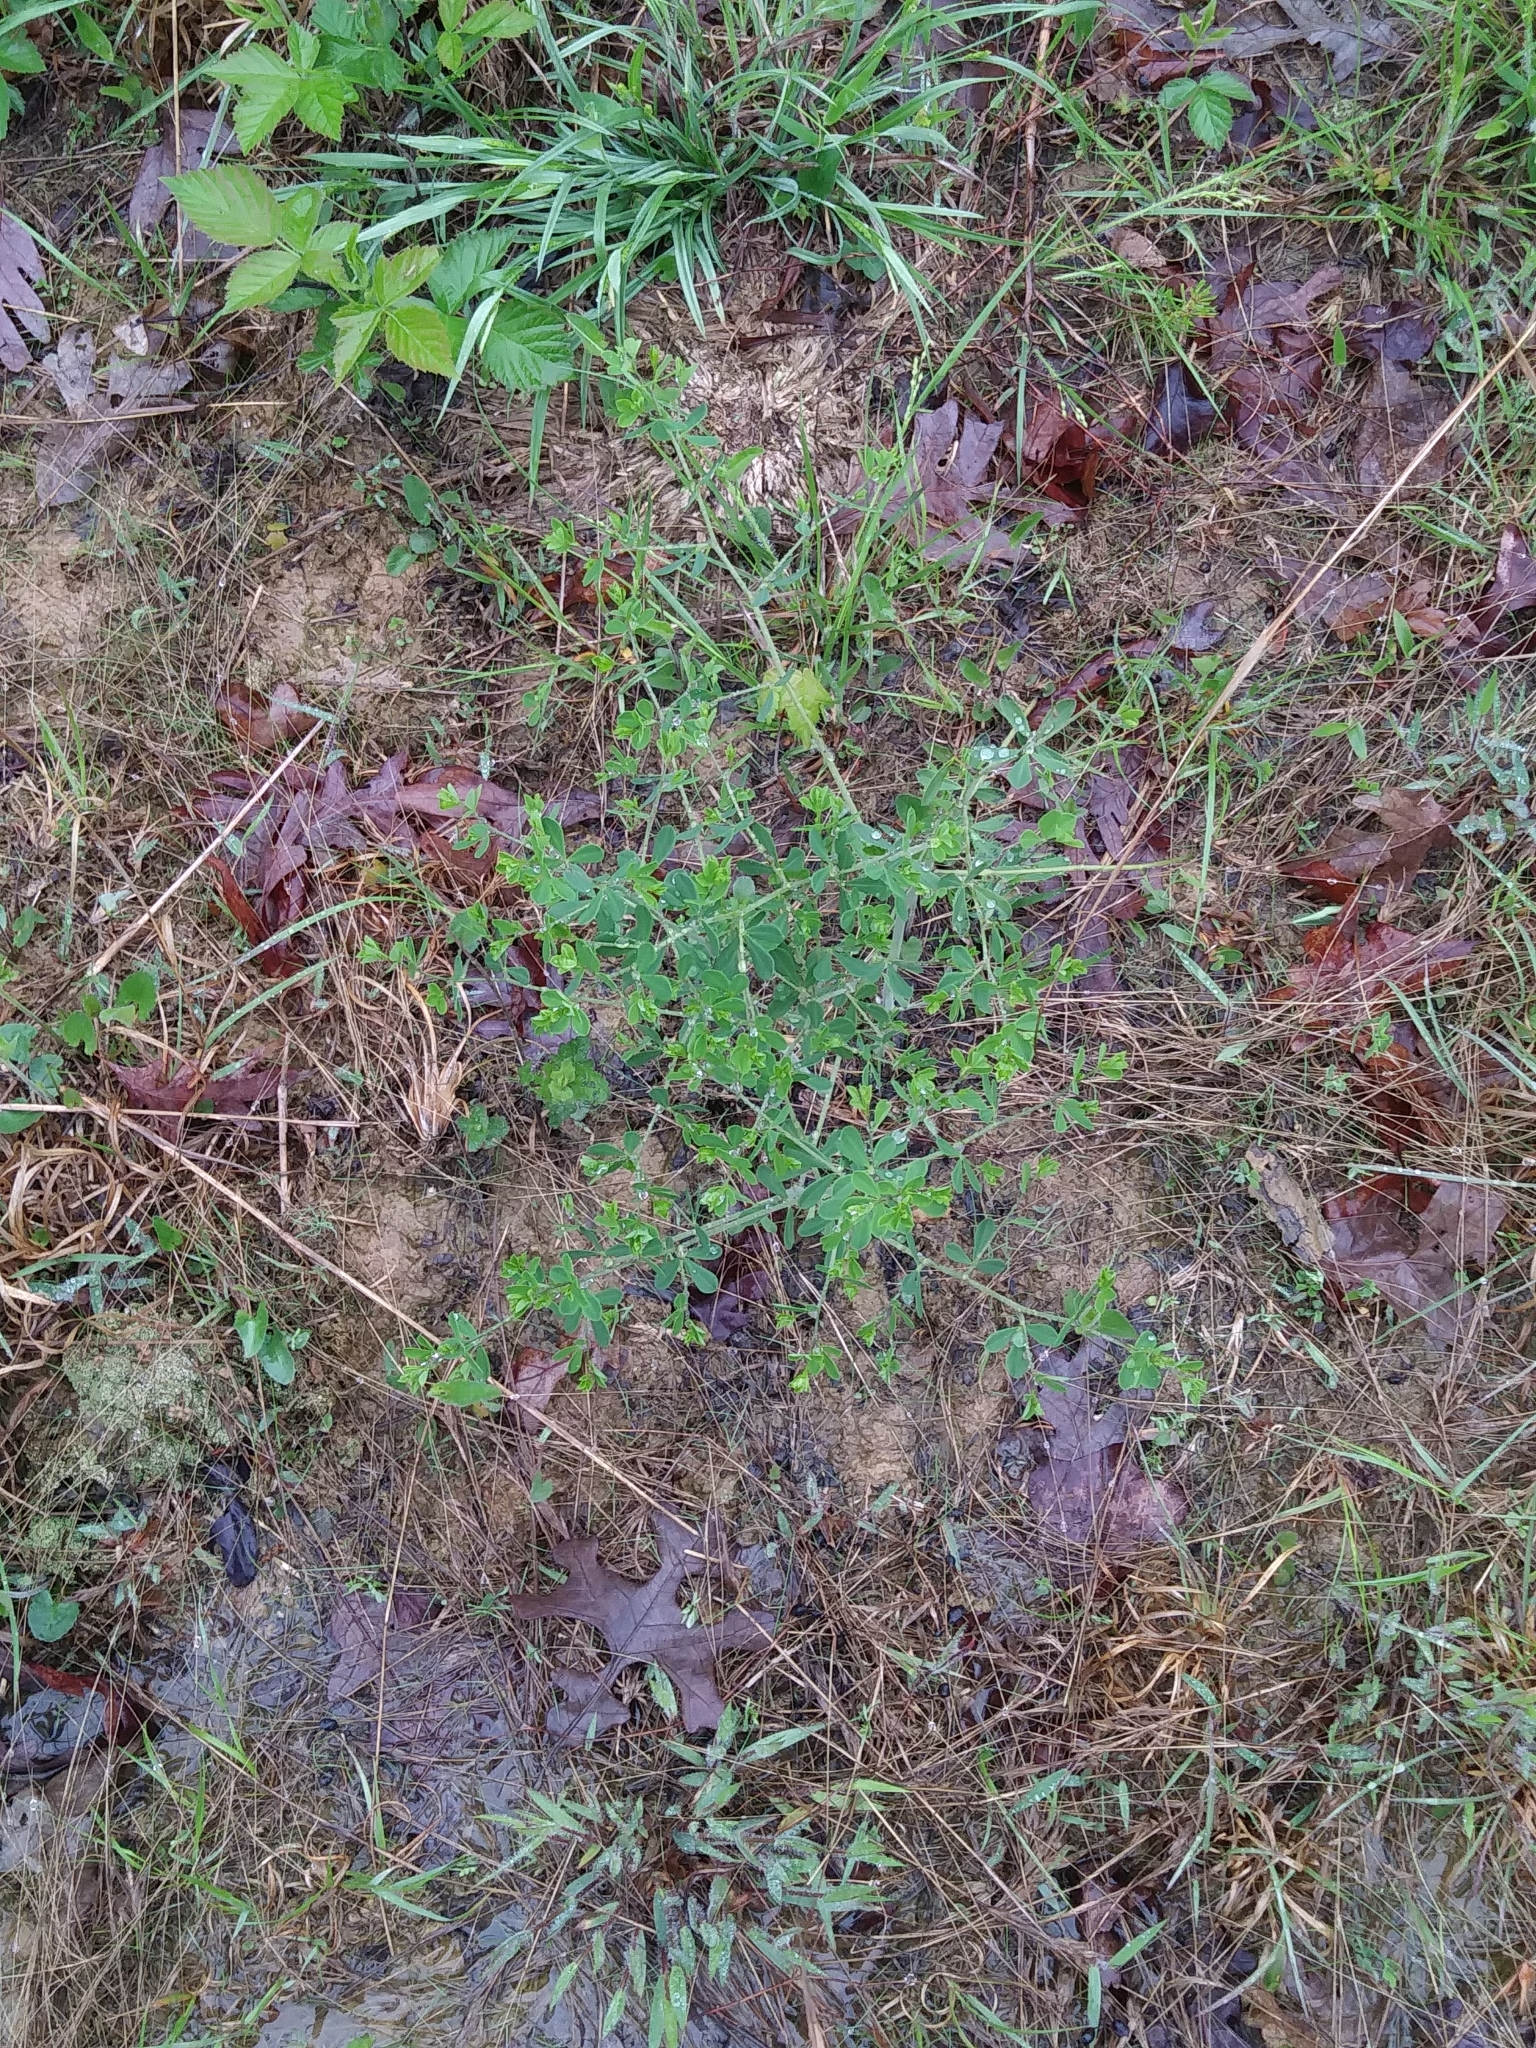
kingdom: Plantae
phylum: Tracheophyta
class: Magnoliopsida
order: Fabales
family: Fabaceae
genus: Baptisia
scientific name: Baptisia tinctoria
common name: Wild indigo
